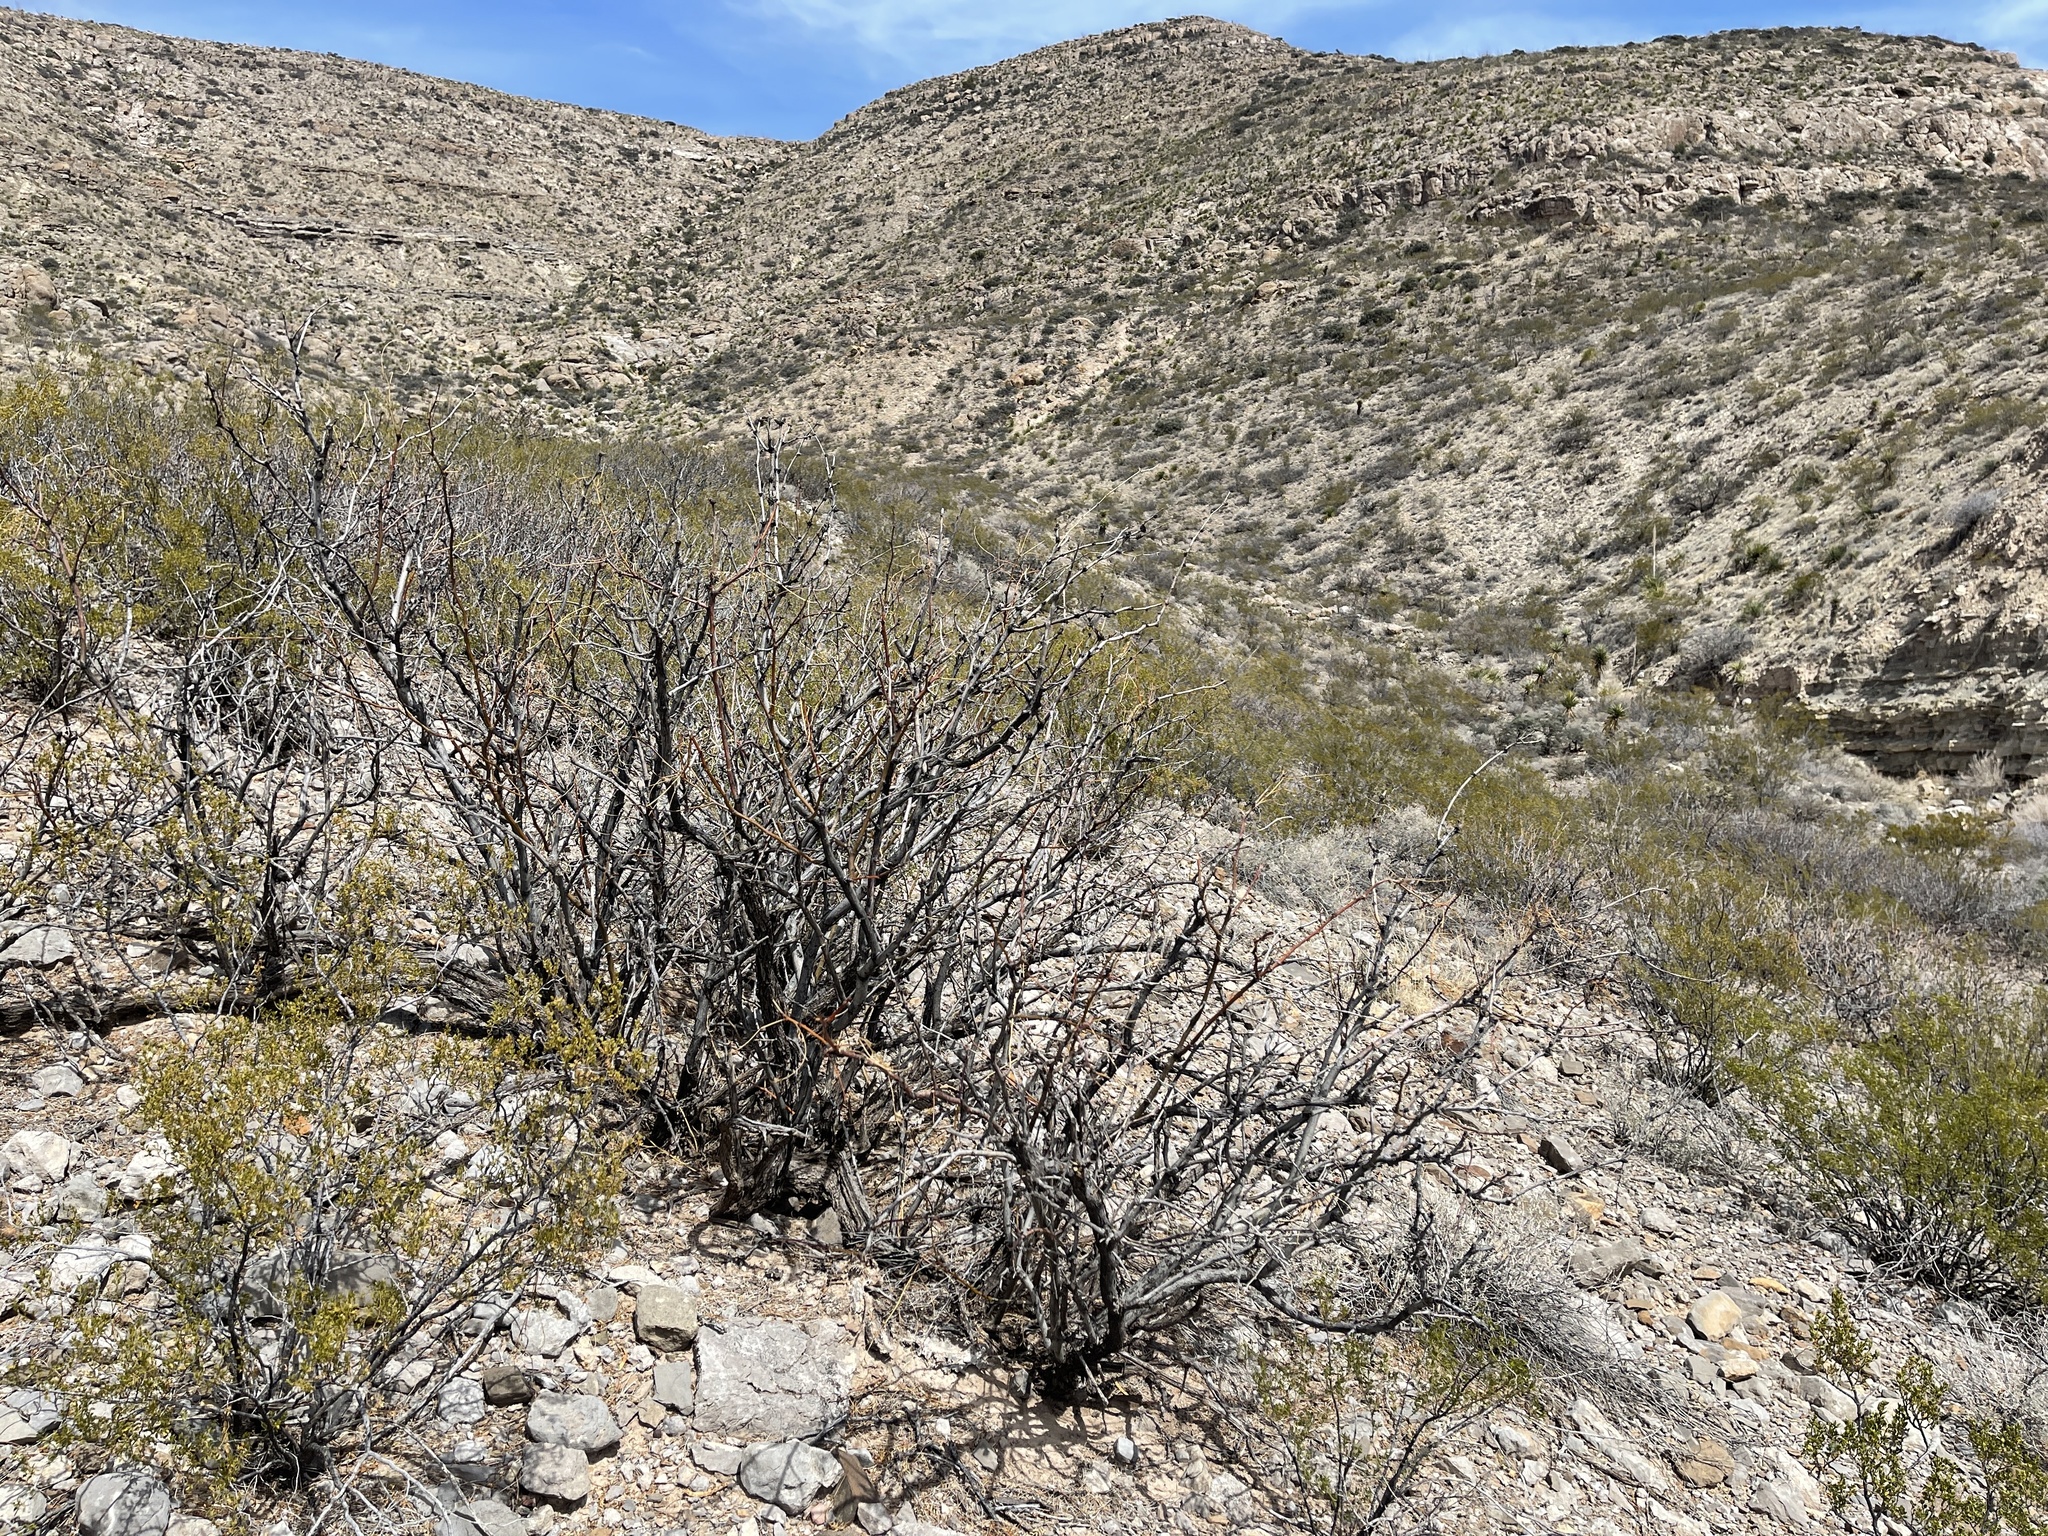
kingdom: Plantae
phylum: Tracheophyta
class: Magnoliopsida
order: Fabales
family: Fabaceae
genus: Prosopis
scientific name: Prosopis glandulosa
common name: Honey mesquite
